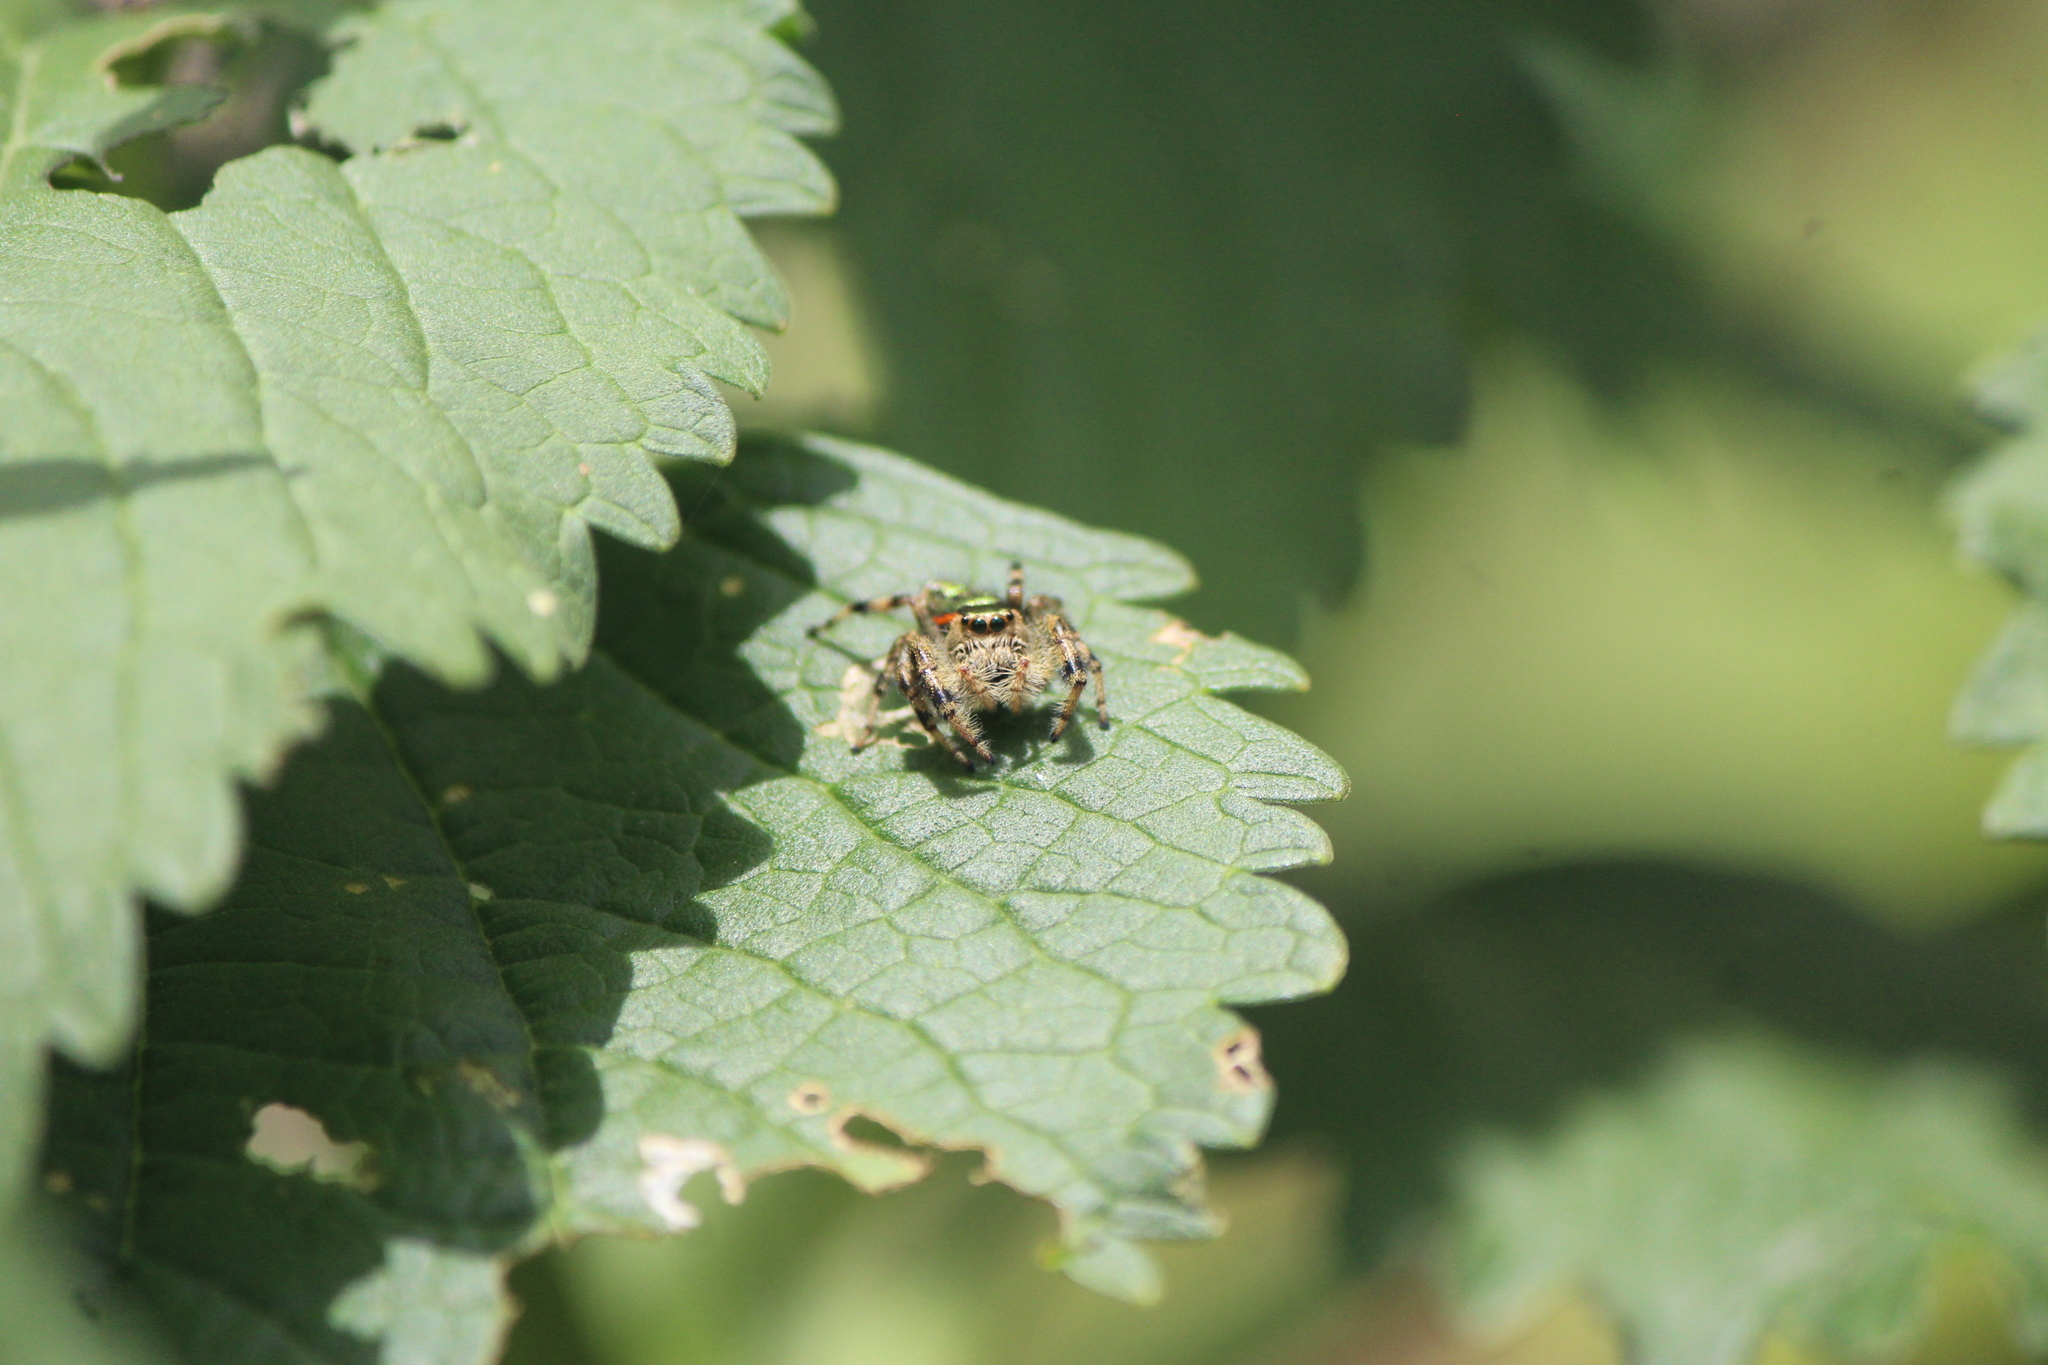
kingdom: Animalia
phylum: Arthropoda
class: Arachnida
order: Araneae
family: Salticidae
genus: Paraphidippus
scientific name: Paraphidippus aurantius
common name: Jumping spiders
